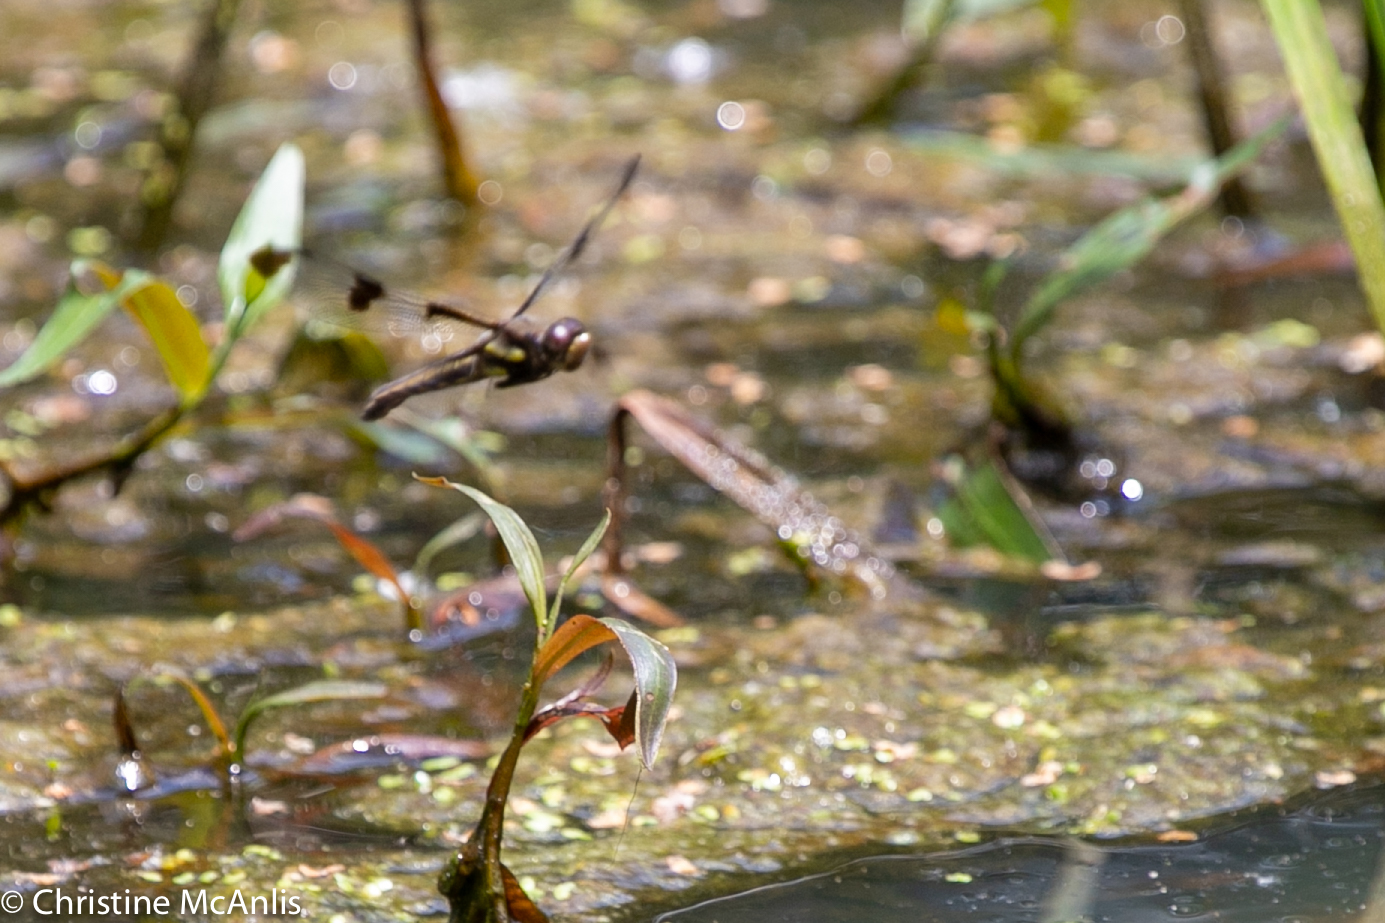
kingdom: Animalia
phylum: Arthropoda
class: Insecta
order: Odonata
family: Libellulidae
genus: Libellula
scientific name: Libellula pulchella
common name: Twelve-spotted skimmer
